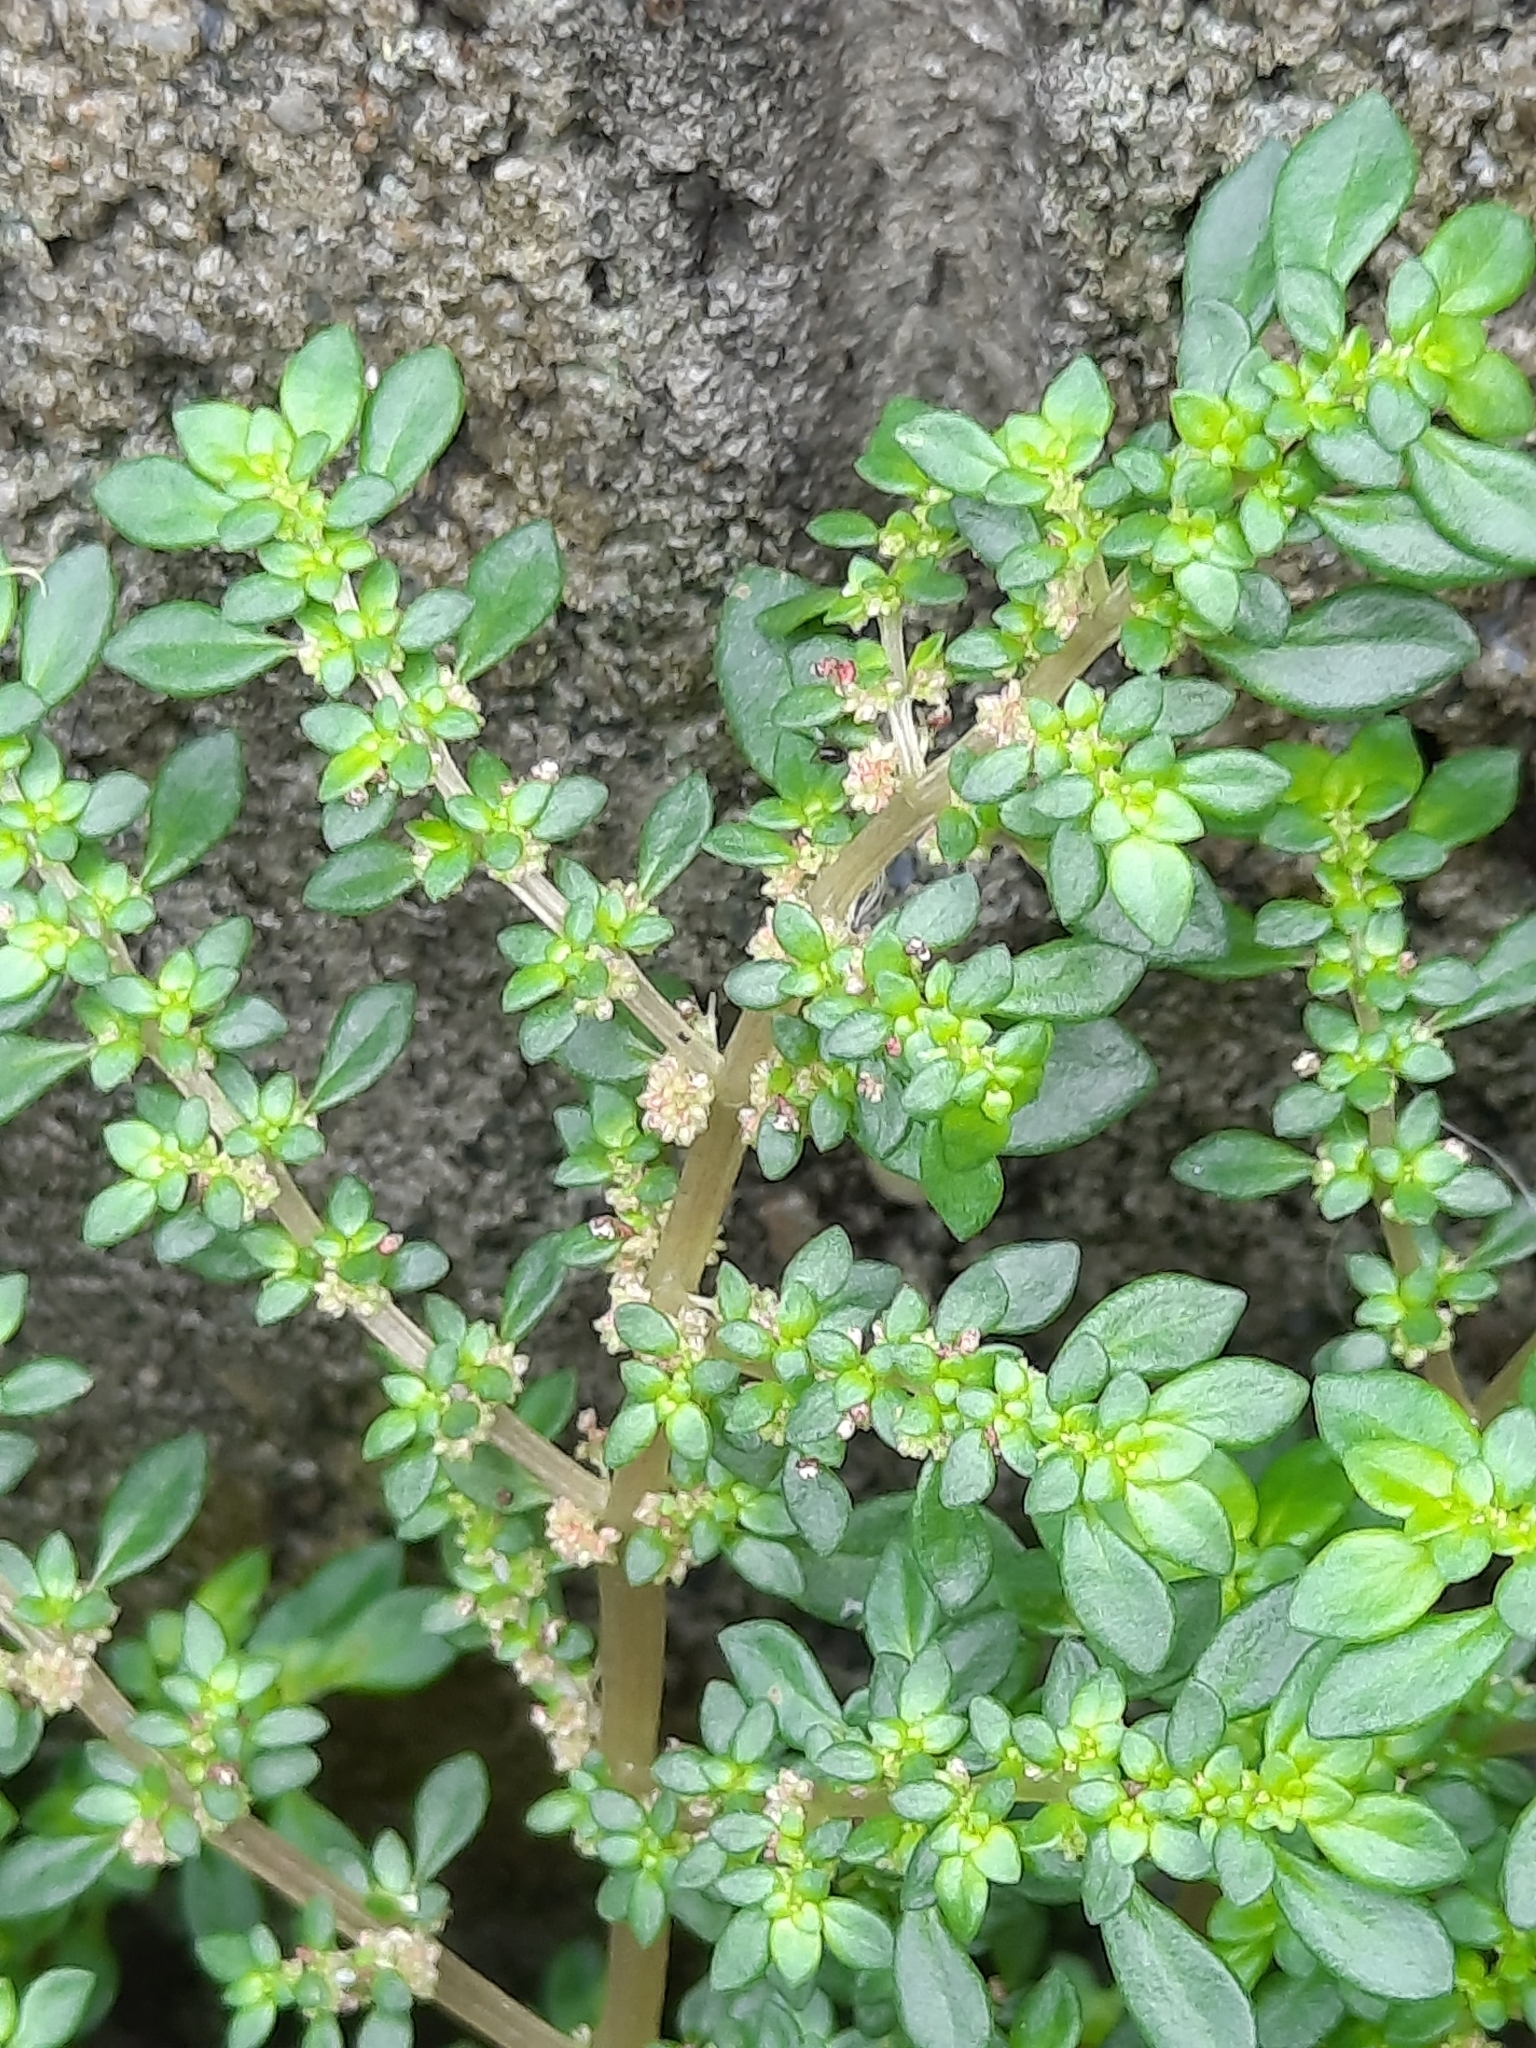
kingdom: Plantae
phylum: Tracheophyta
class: Magnoliopsida
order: Rosales
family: Urticaceae
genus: Pilea
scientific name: Pilea microphylla
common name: Artillery-plant
